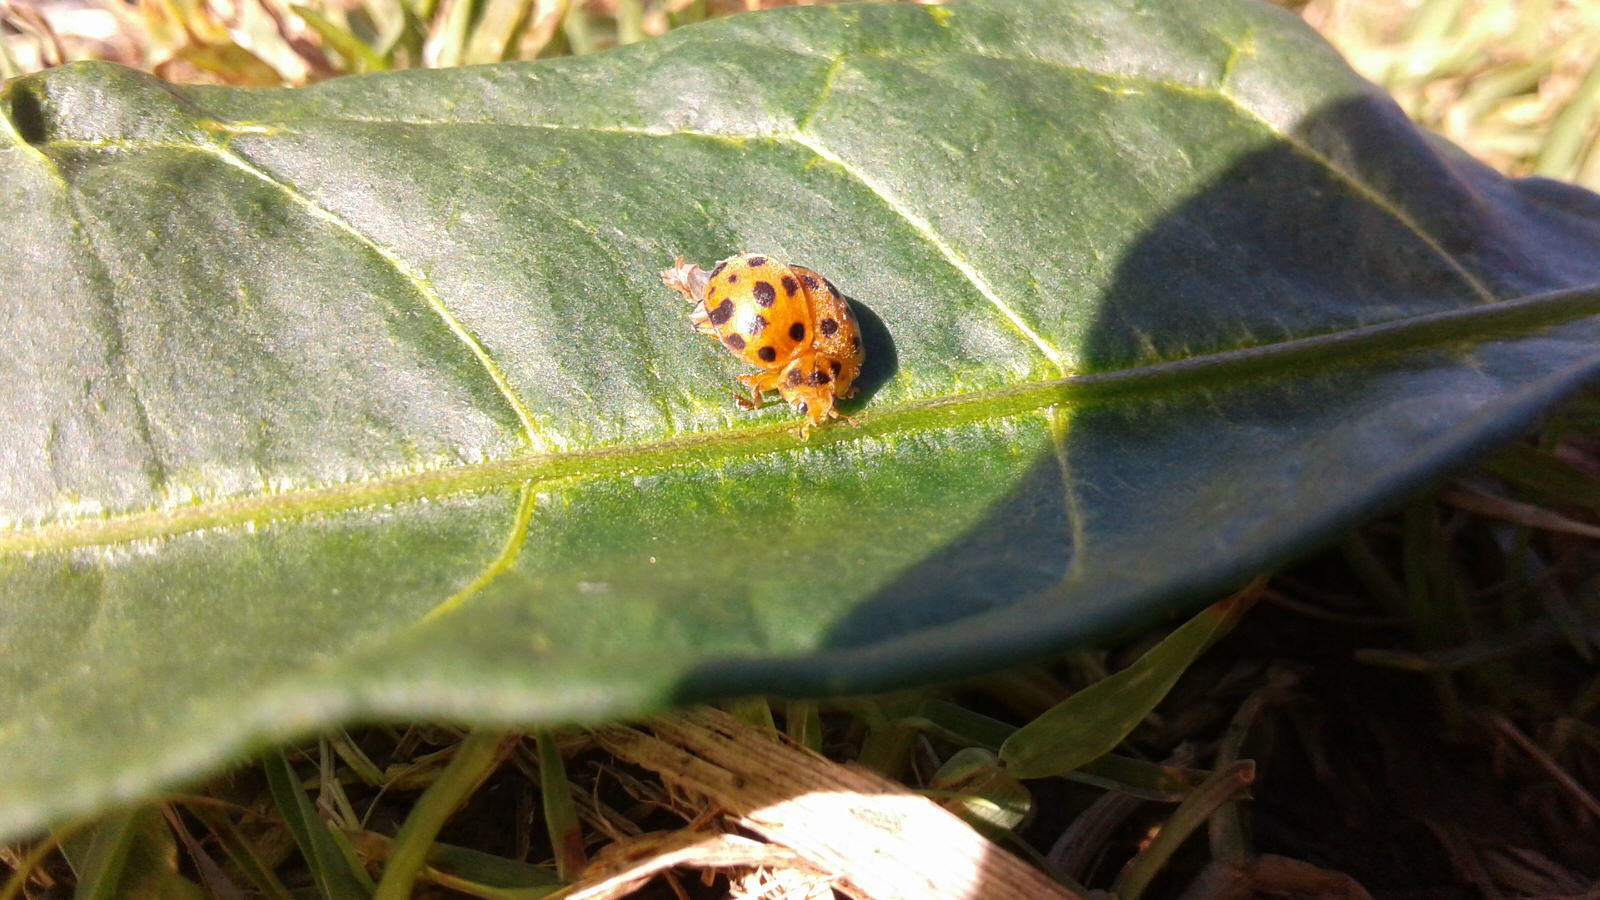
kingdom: Animalia
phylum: Arthropoda
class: Insecta
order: Coleoptera
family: Coccinellidae
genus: Henosepilachna
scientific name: Henosepilachna vigintioctopunctata
